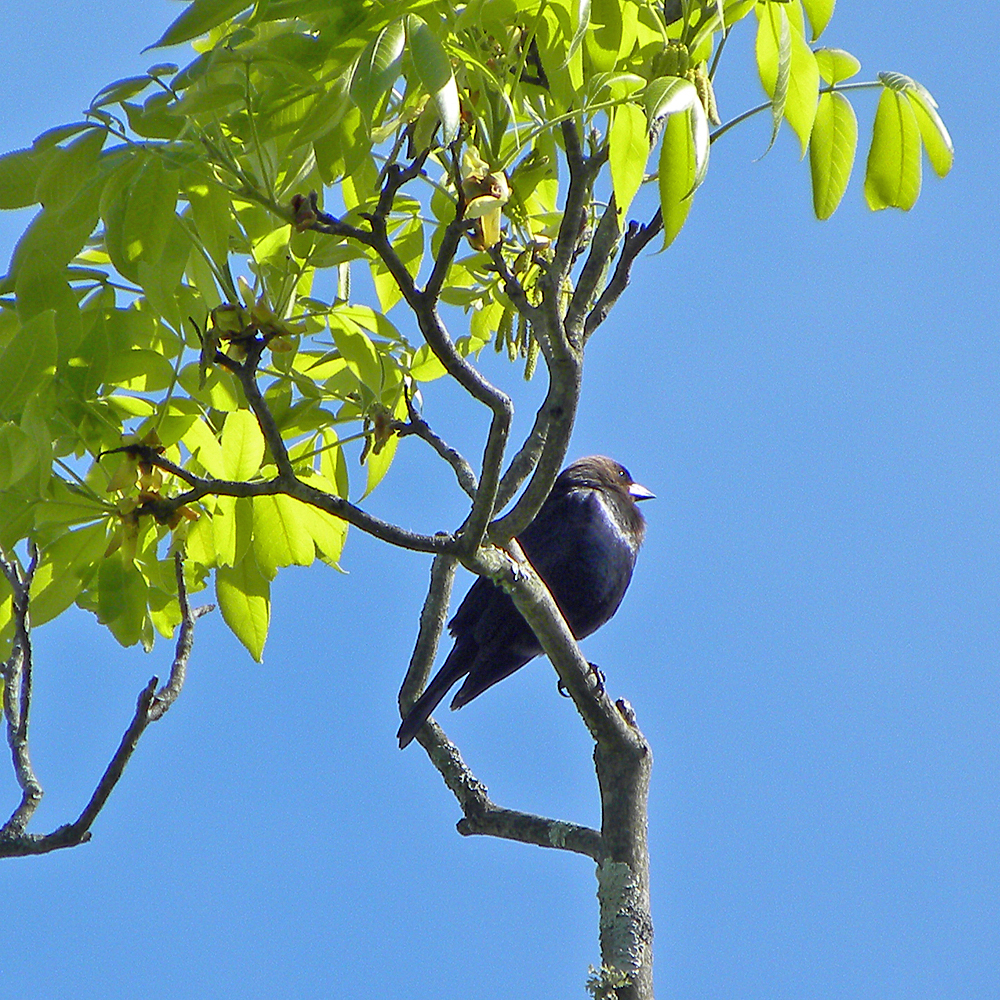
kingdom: Animalia
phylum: Chordata
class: Aves
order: Passeriformes
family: Icteridae
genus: Molothrus
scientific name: Molothrus ater
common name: Brown-headed cowbird
